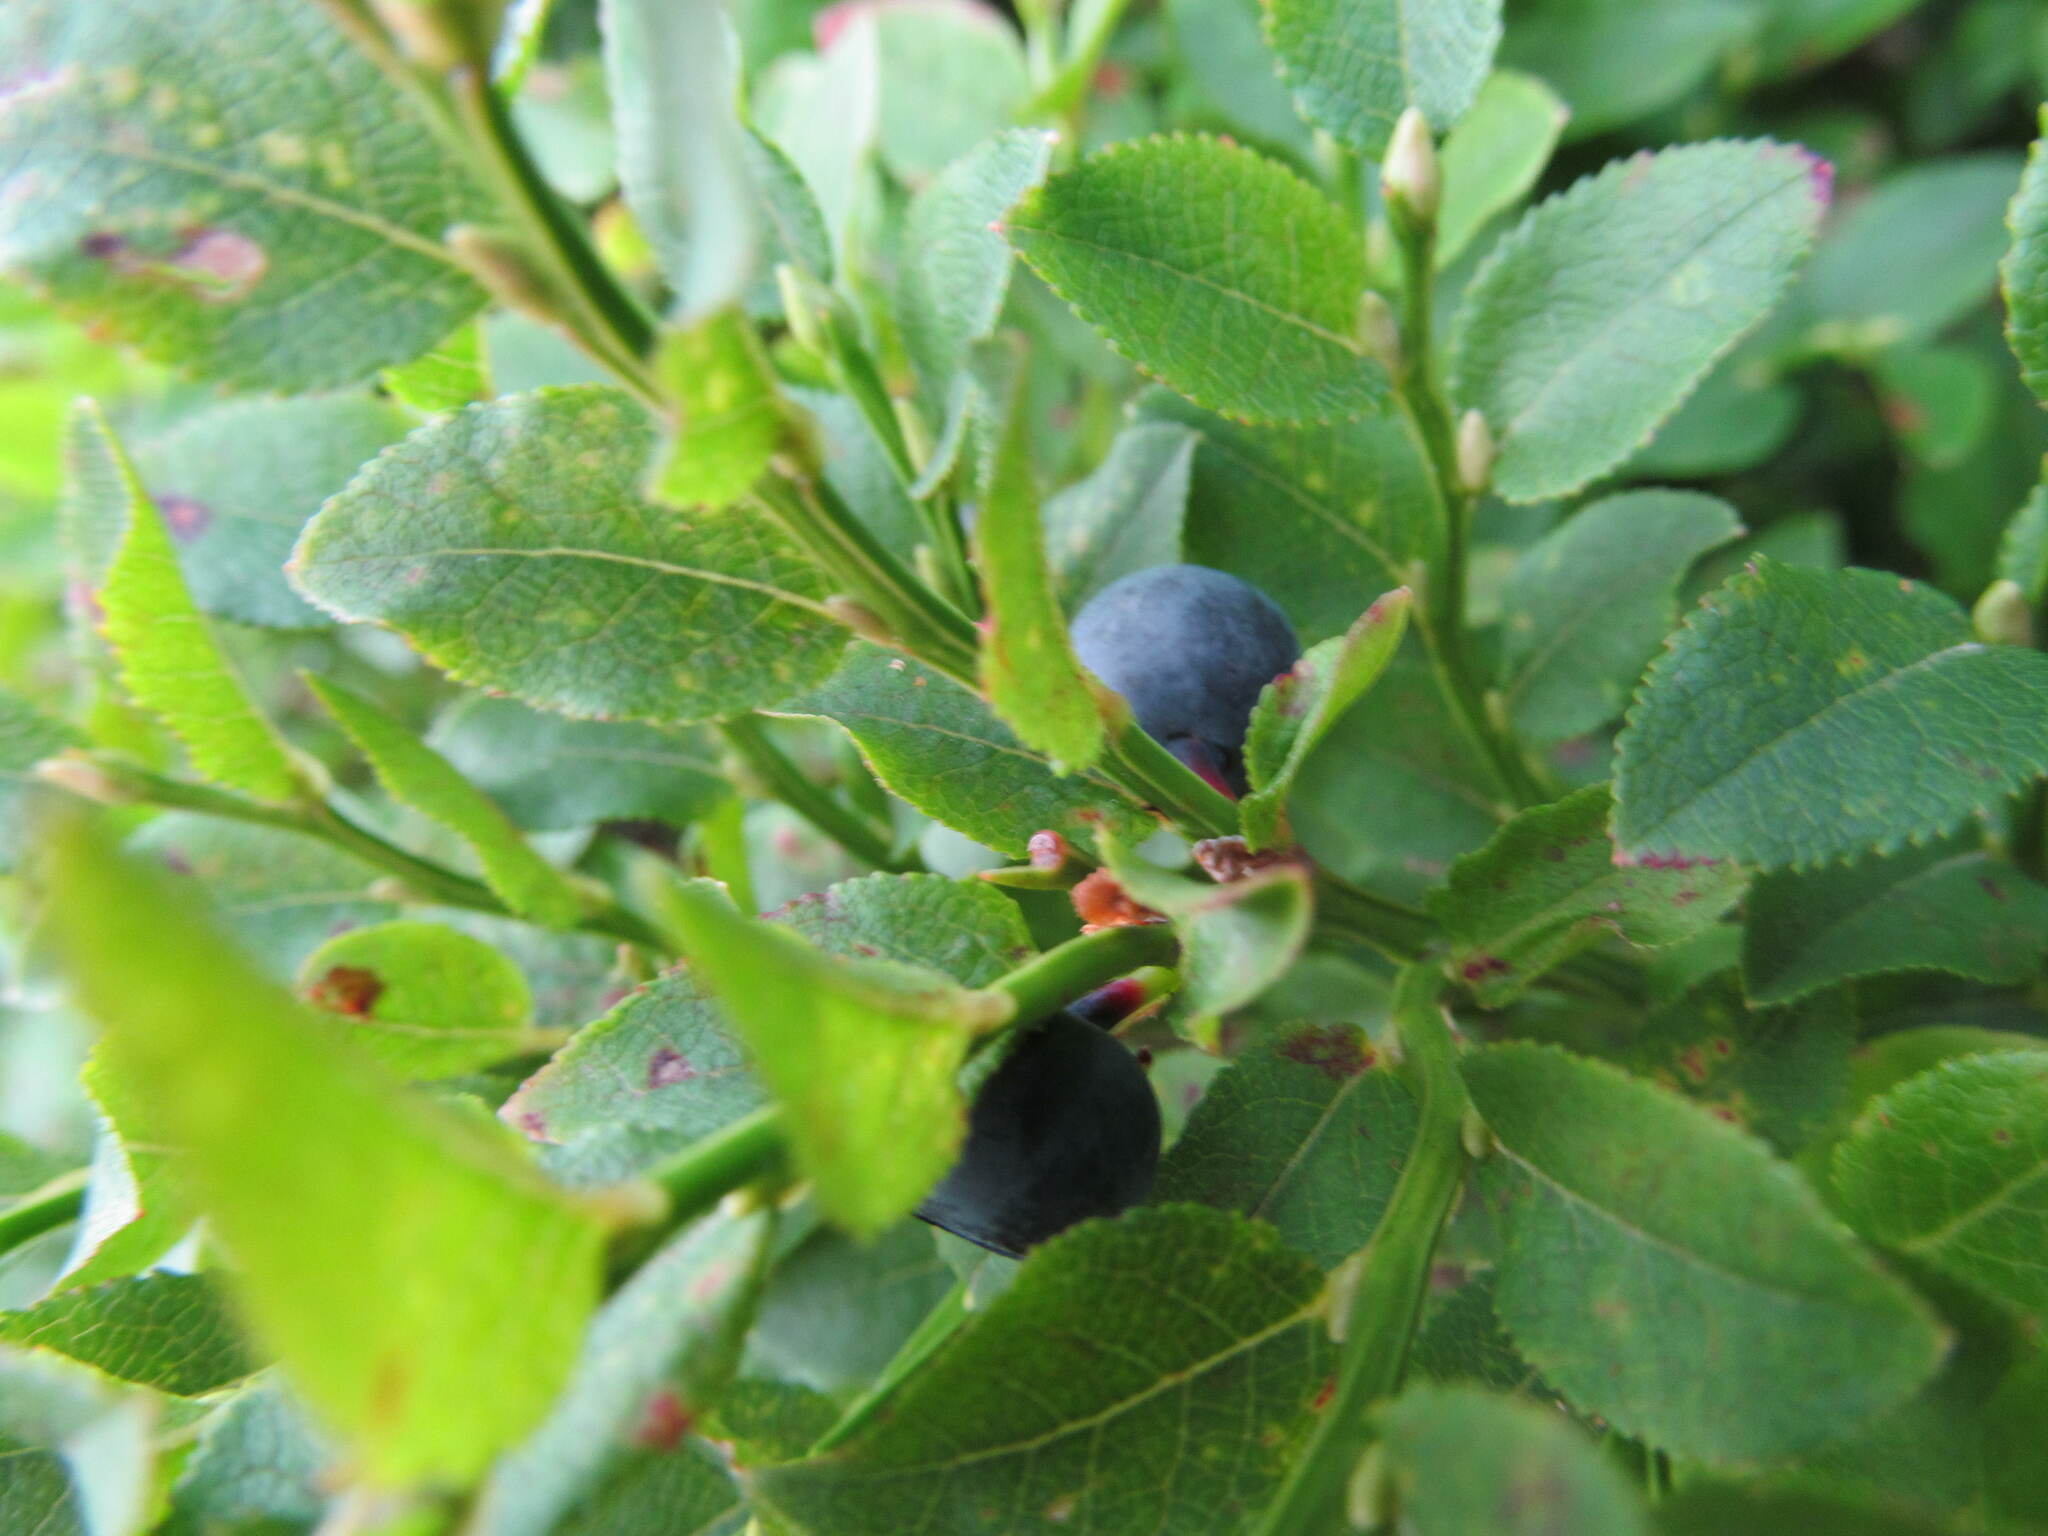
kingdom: Plantae
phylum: Tracheophyta
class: Magnoliopsida
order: Ericales
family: Ericaceae
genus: Vaccinium
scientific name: Vaccinium myrtillus
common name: Bilberry
